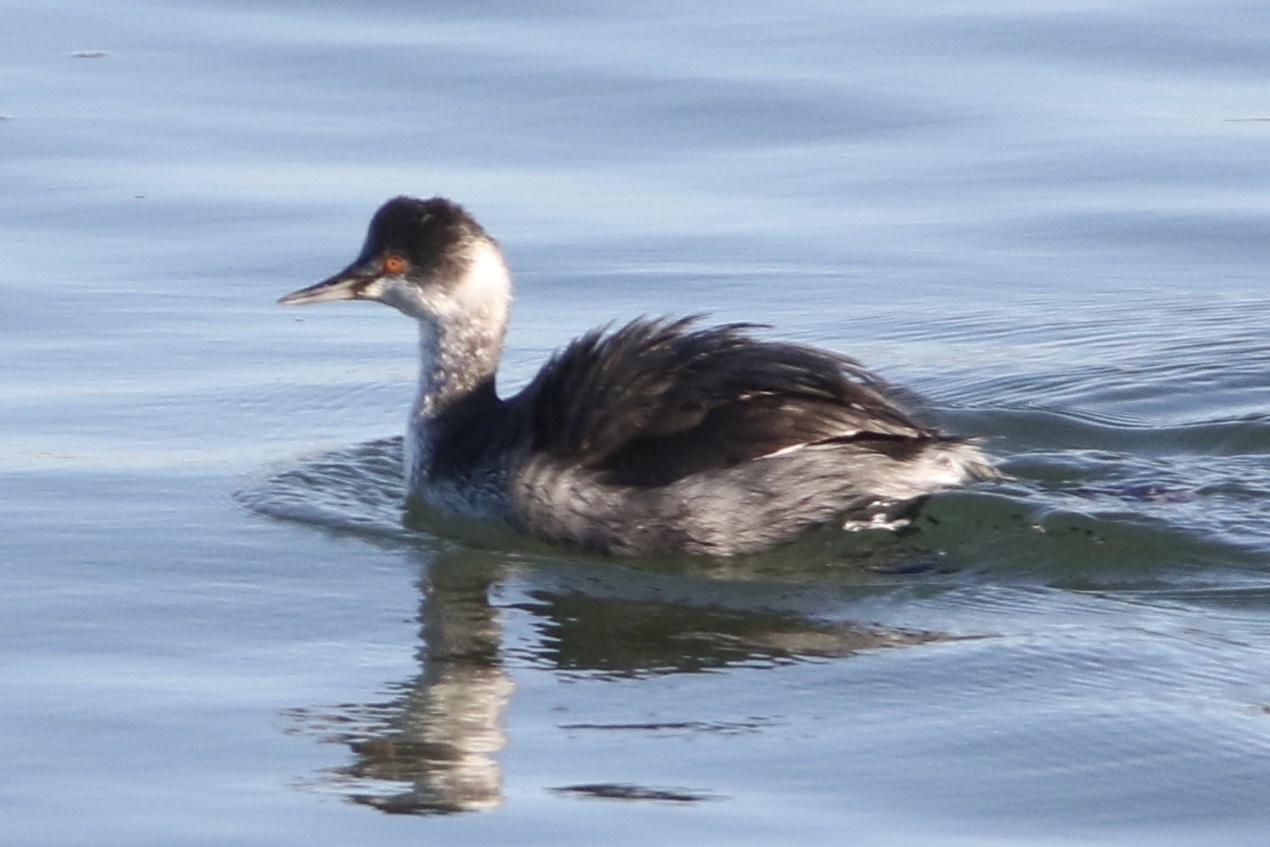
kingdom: Animalia
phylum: Chordata
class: Aves
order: Podicipediformes
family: Podicipedidae
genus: Podiceps
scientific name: Podiceps nigricollis
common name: Black-necked grebe
